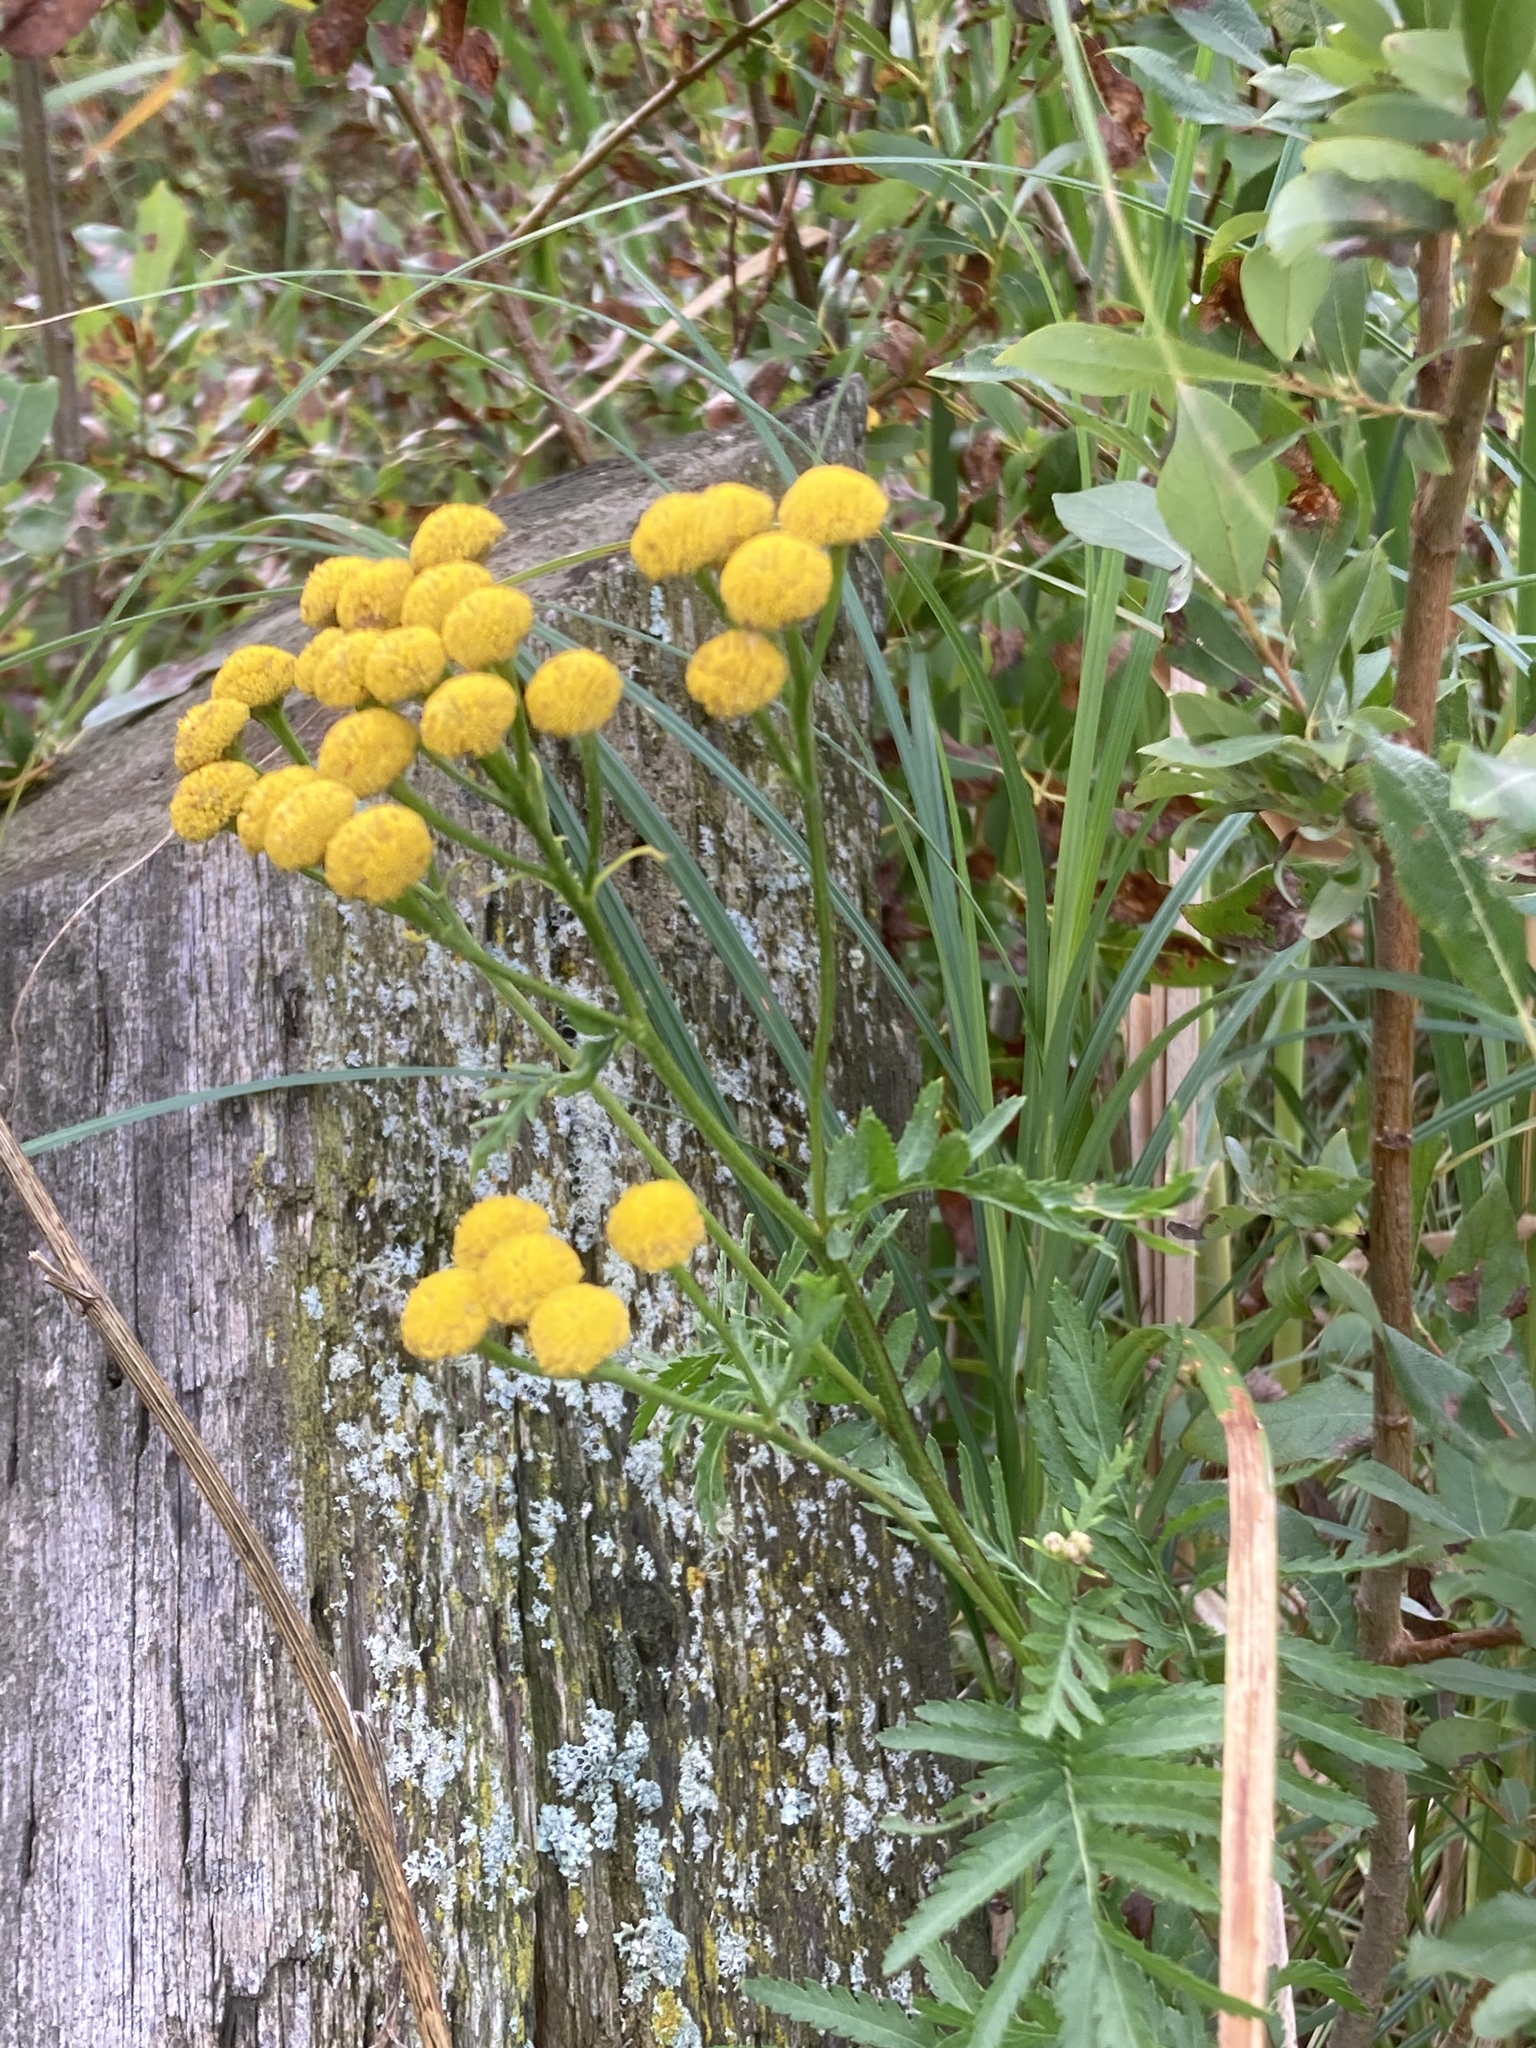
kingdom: Plantae
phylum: Tracheophyta
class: Magnoliopsida
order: Asterales
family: Asteraceae
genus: Tanacetum
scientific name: Tanacetum vulgare
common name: Common tansy
